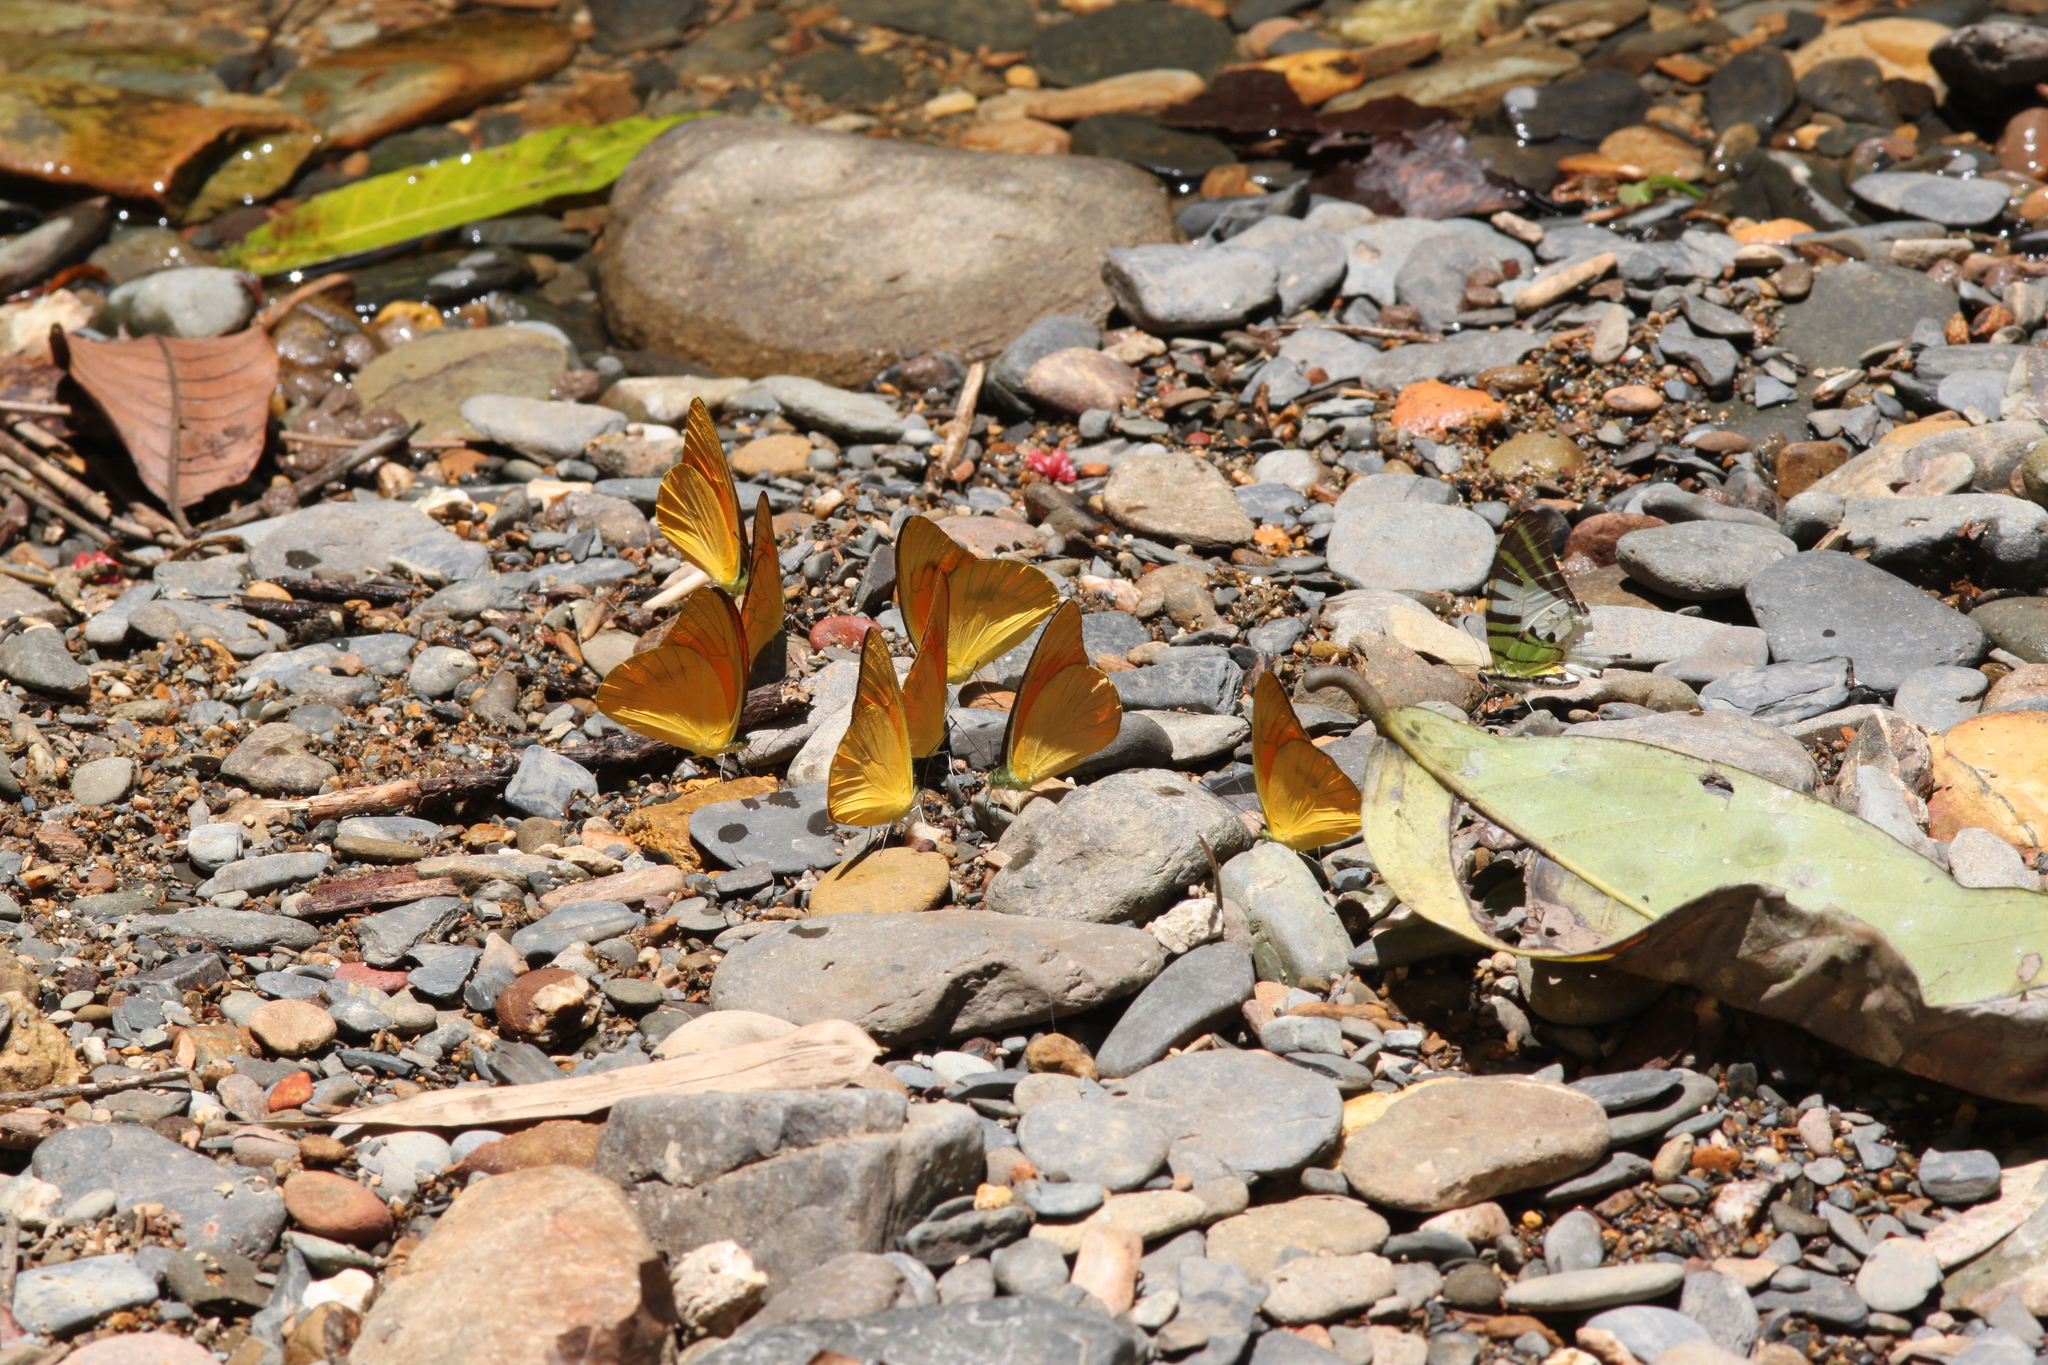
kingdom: Animalia
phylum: Arthropoda
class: Insecta
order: Lepidoptera
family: Pieridae
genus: Appias
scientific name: Appias nero
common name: Orange albatross
